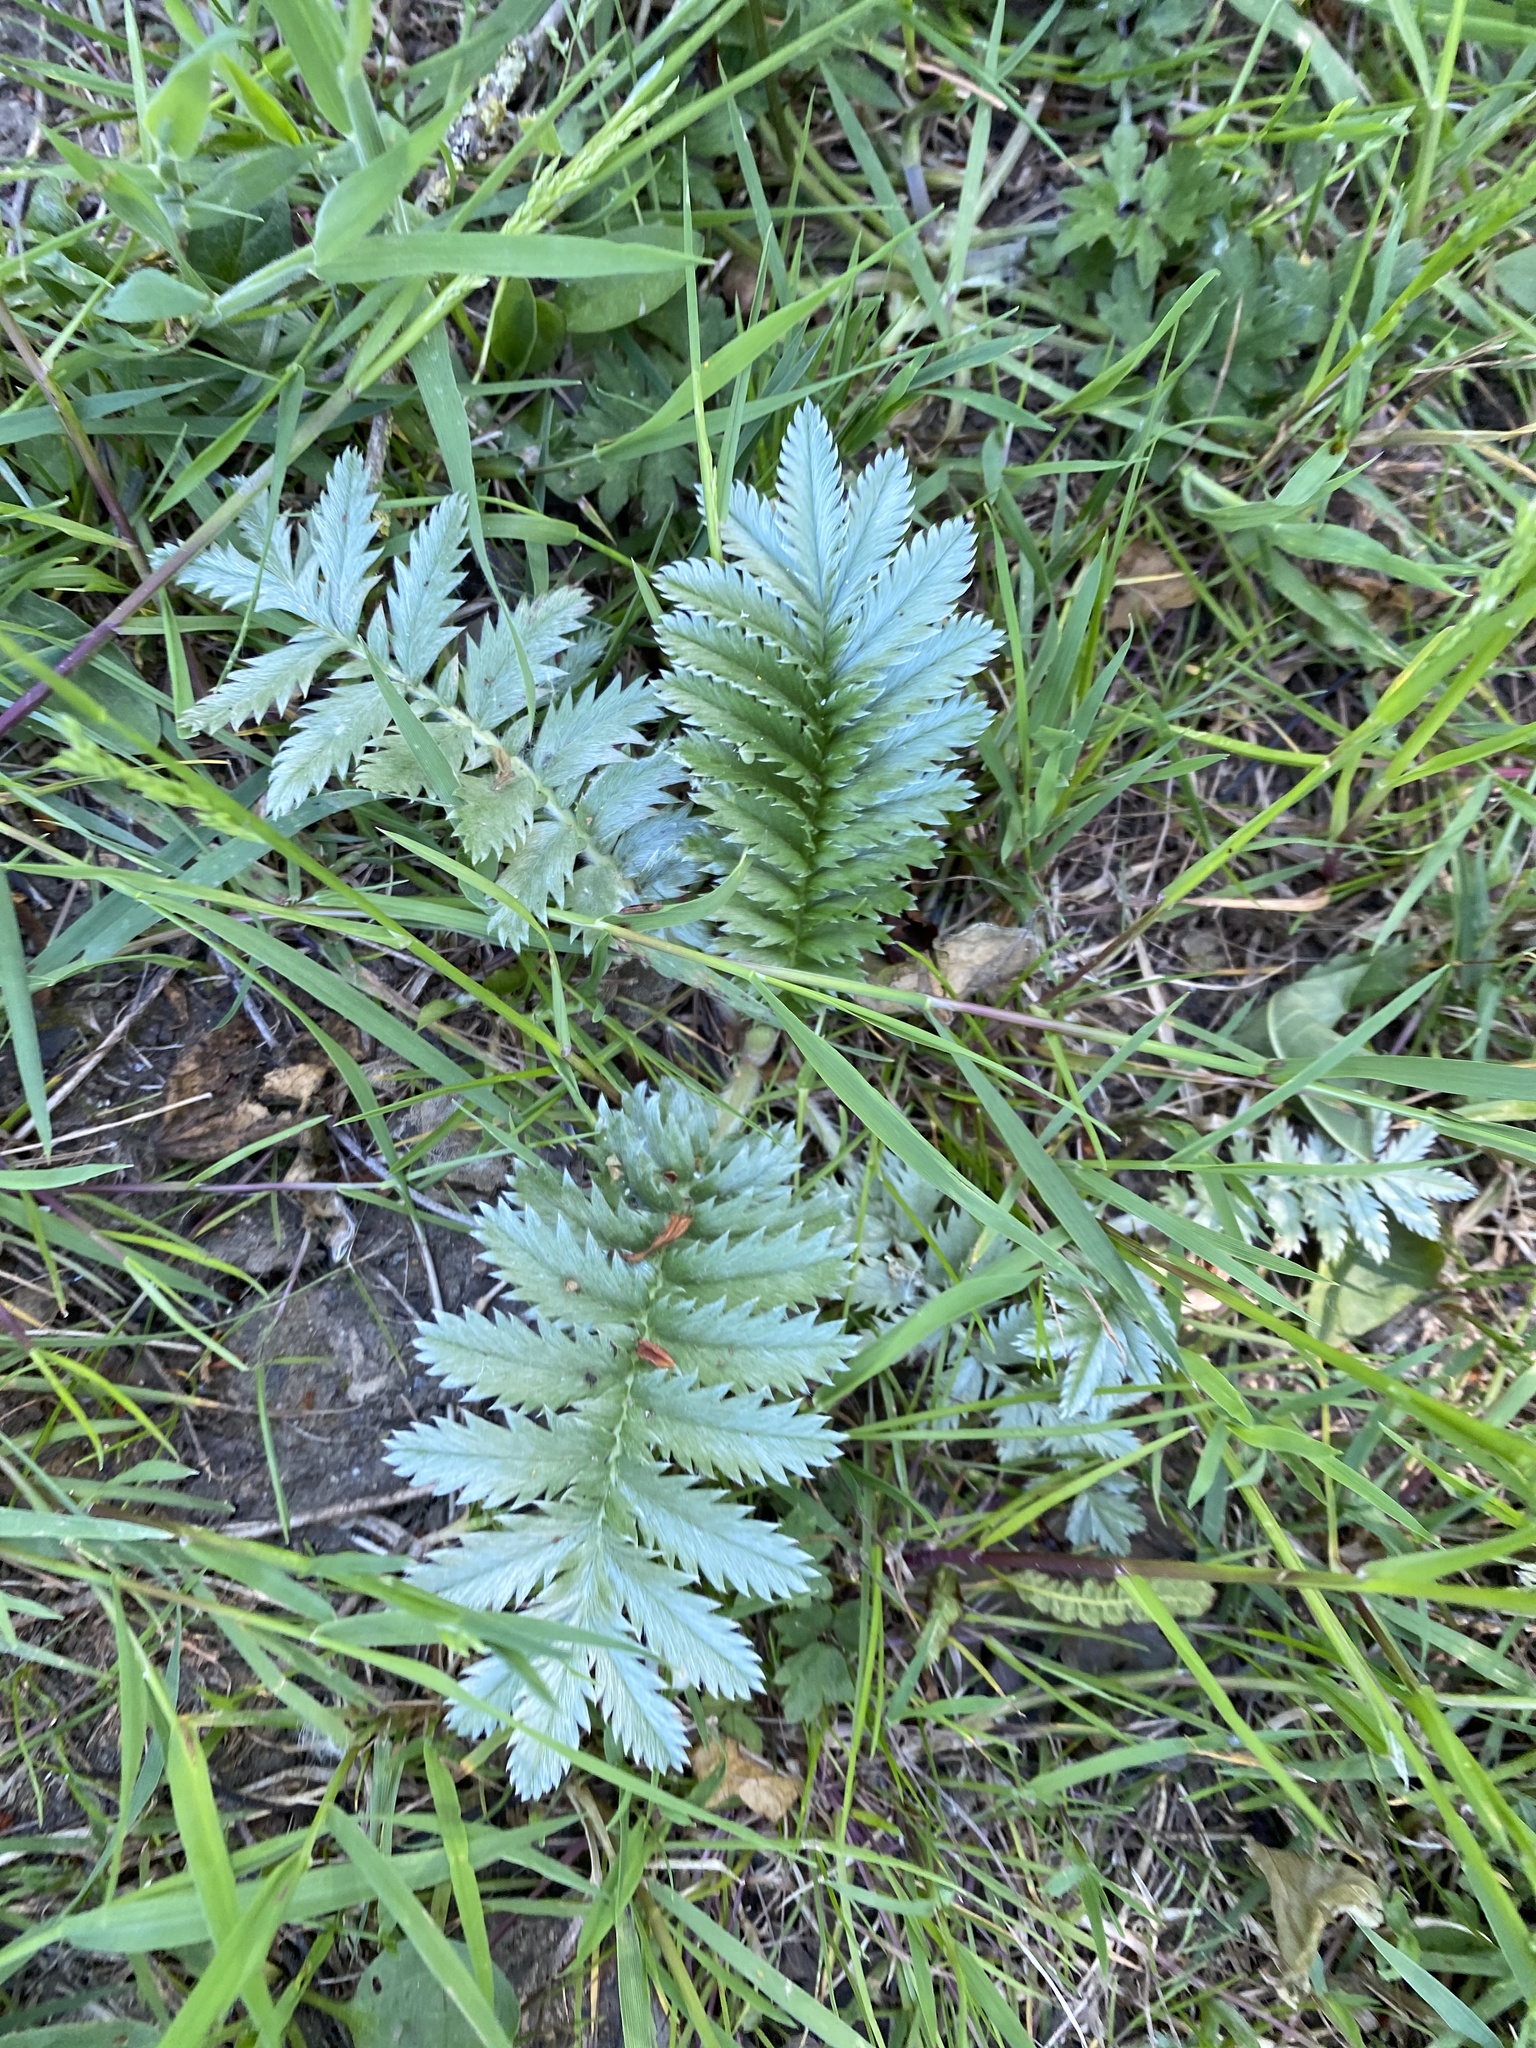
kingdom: Plantae
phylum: Tracheophyta
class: Magnoliopsida
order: Rosales
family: Rosaceae
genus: Argentina
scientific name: Argentina anserina
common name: Common silverweed
